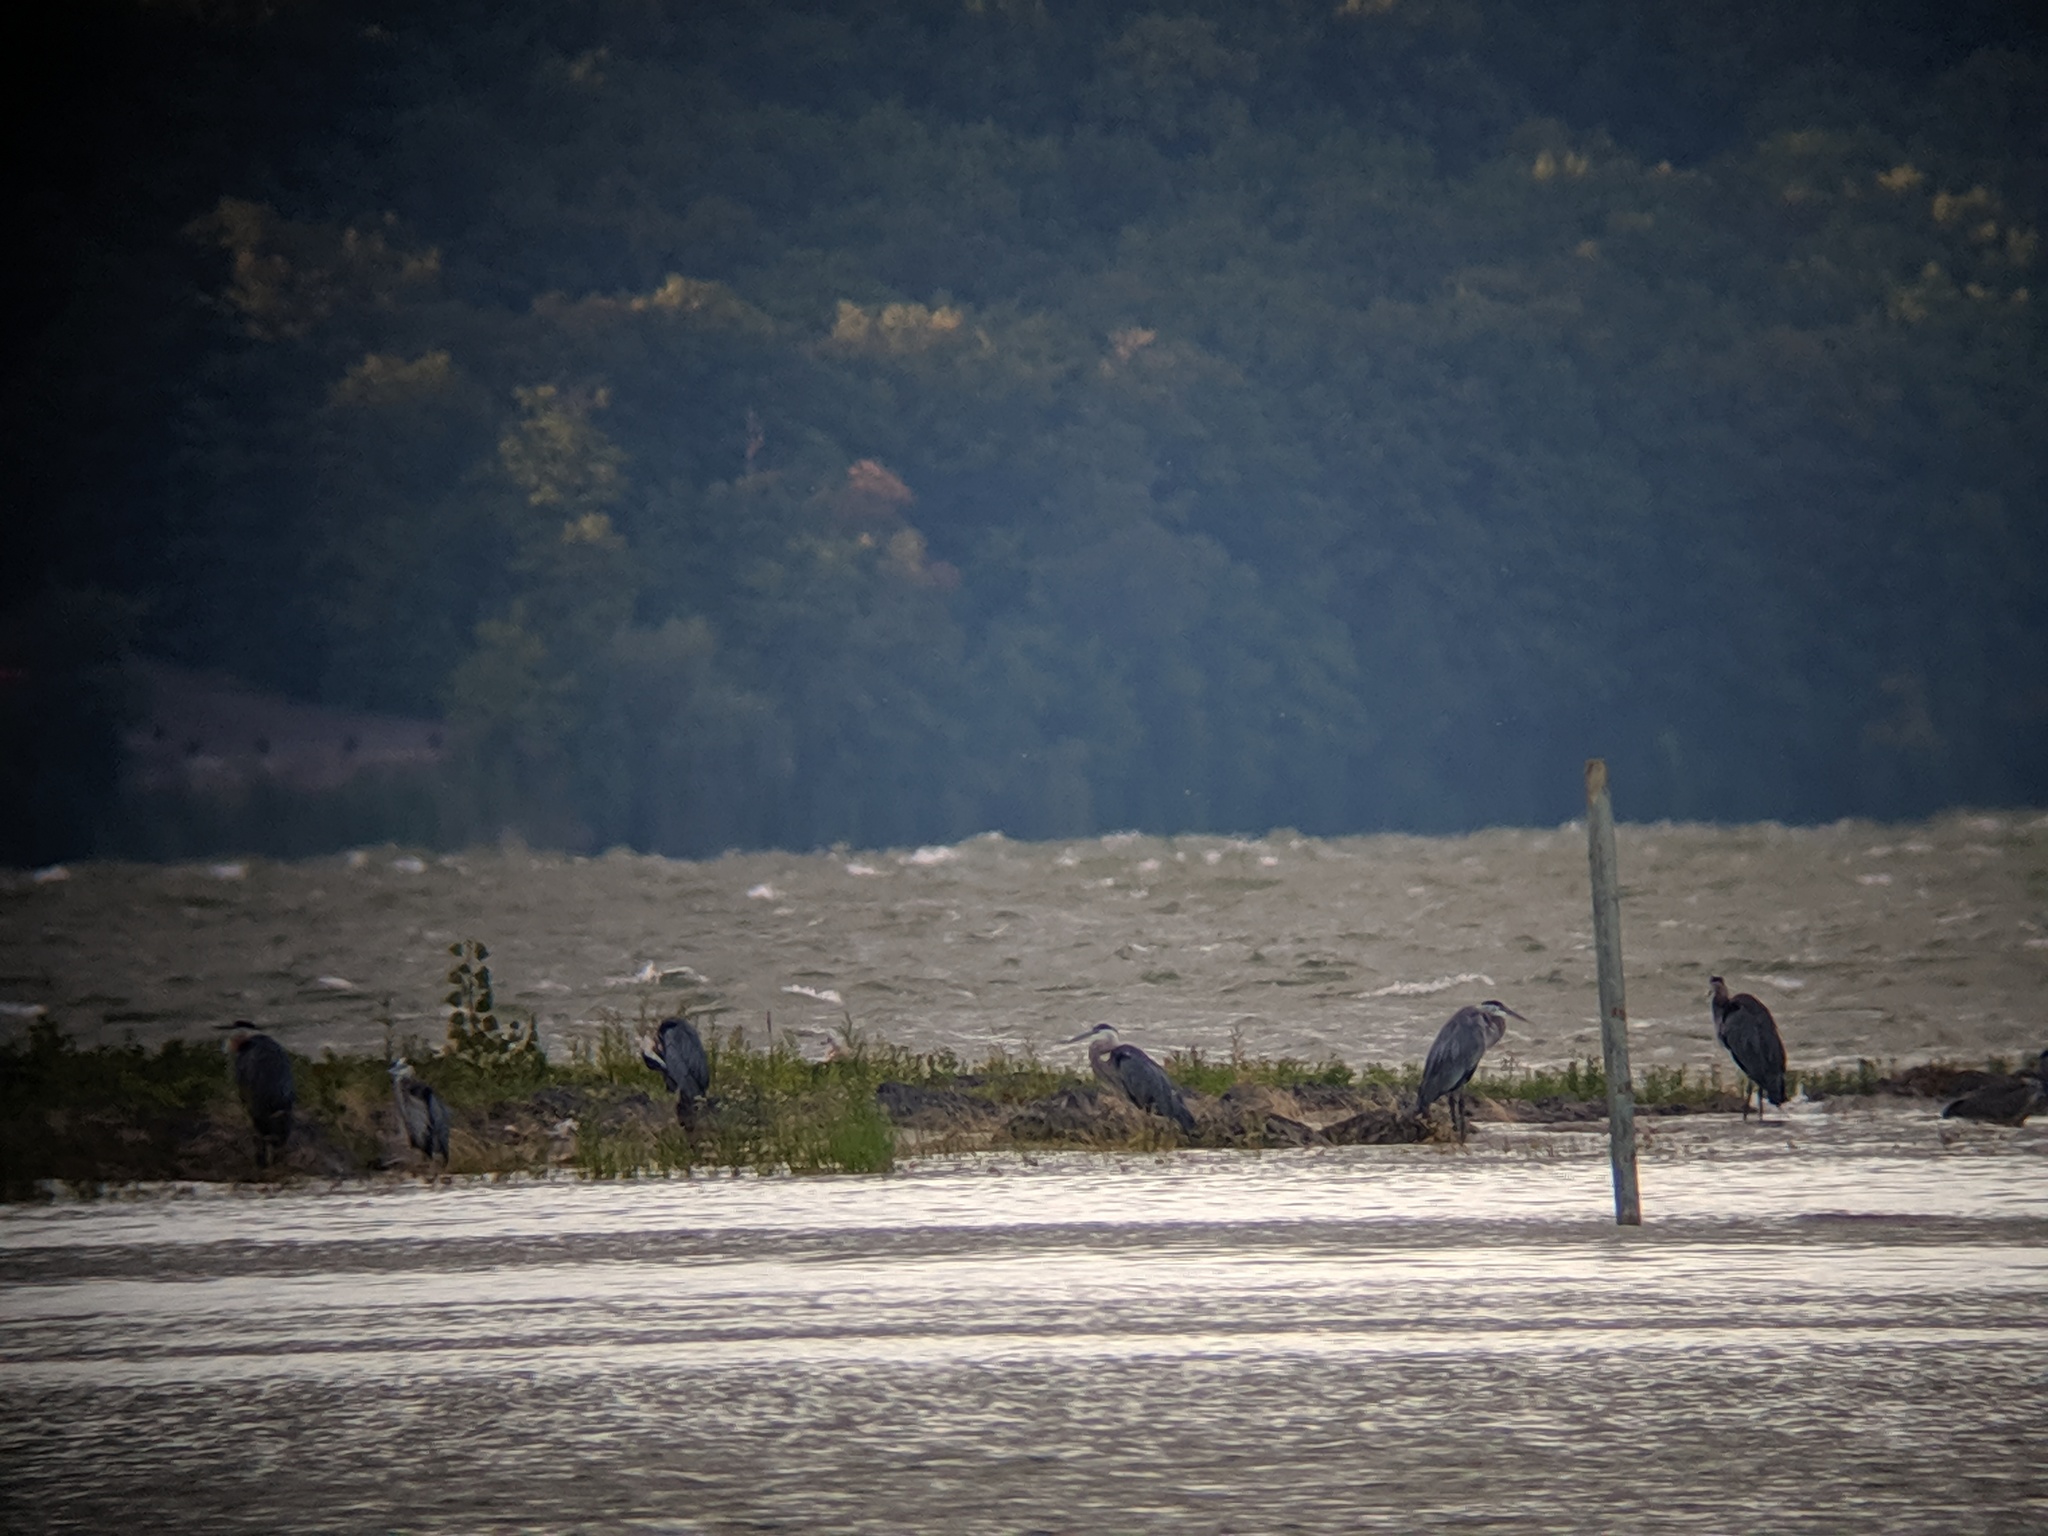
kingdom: Animalia
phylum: Chordata
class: Aves
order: Pelecaniformes
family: Ardeidae
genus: Ardea
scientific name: Ardea herodias
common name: Great blue heron
